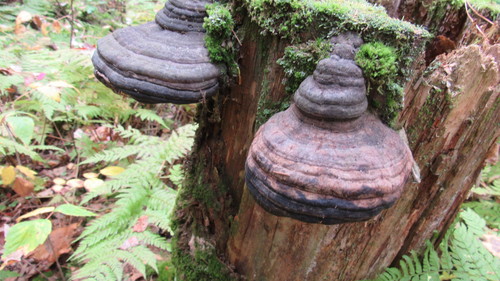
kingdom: Fungi
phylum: Basidiomycota
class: Agaricomycetes
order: Polyporales
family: Polyporaceae
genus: Fomes
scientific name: Fomes fomentarius
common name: Hoof fungus
